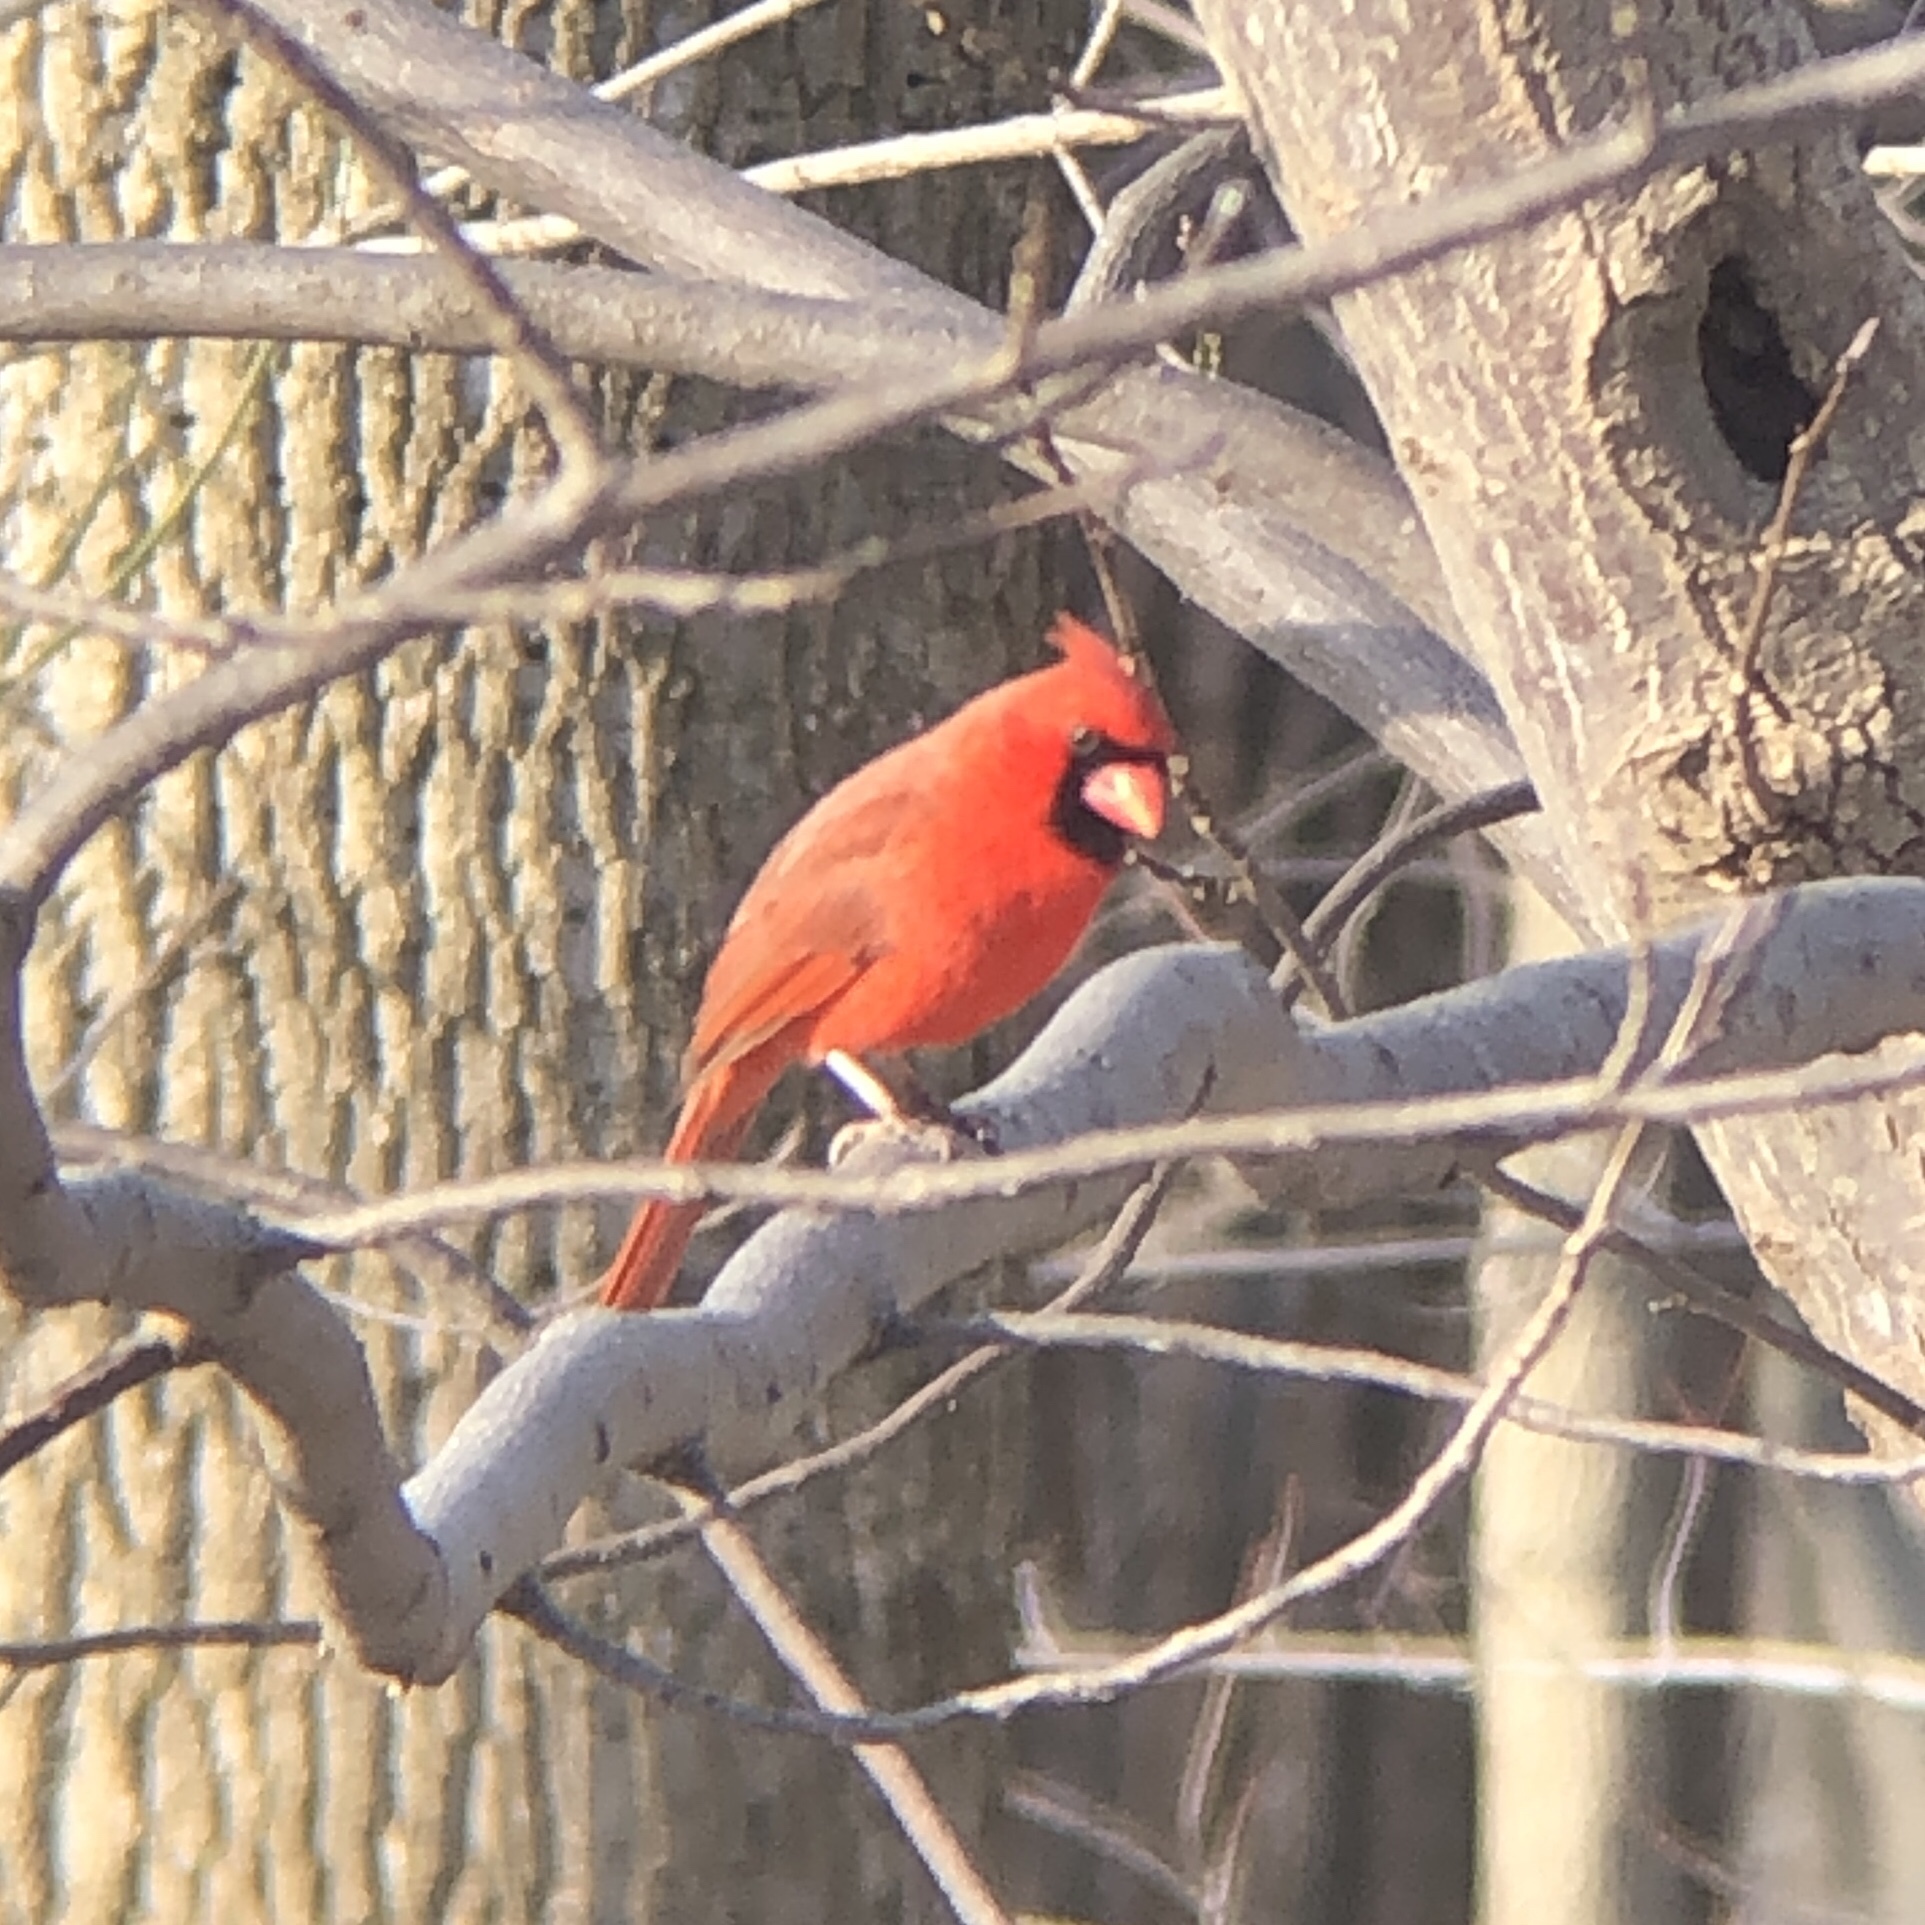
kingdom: Animalia
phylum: Chordata
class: Aves
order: Passeriformes
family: Cardinalidae
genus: Cardinalis
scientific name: Cardinalis cardinalis
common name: Northern cardinal
